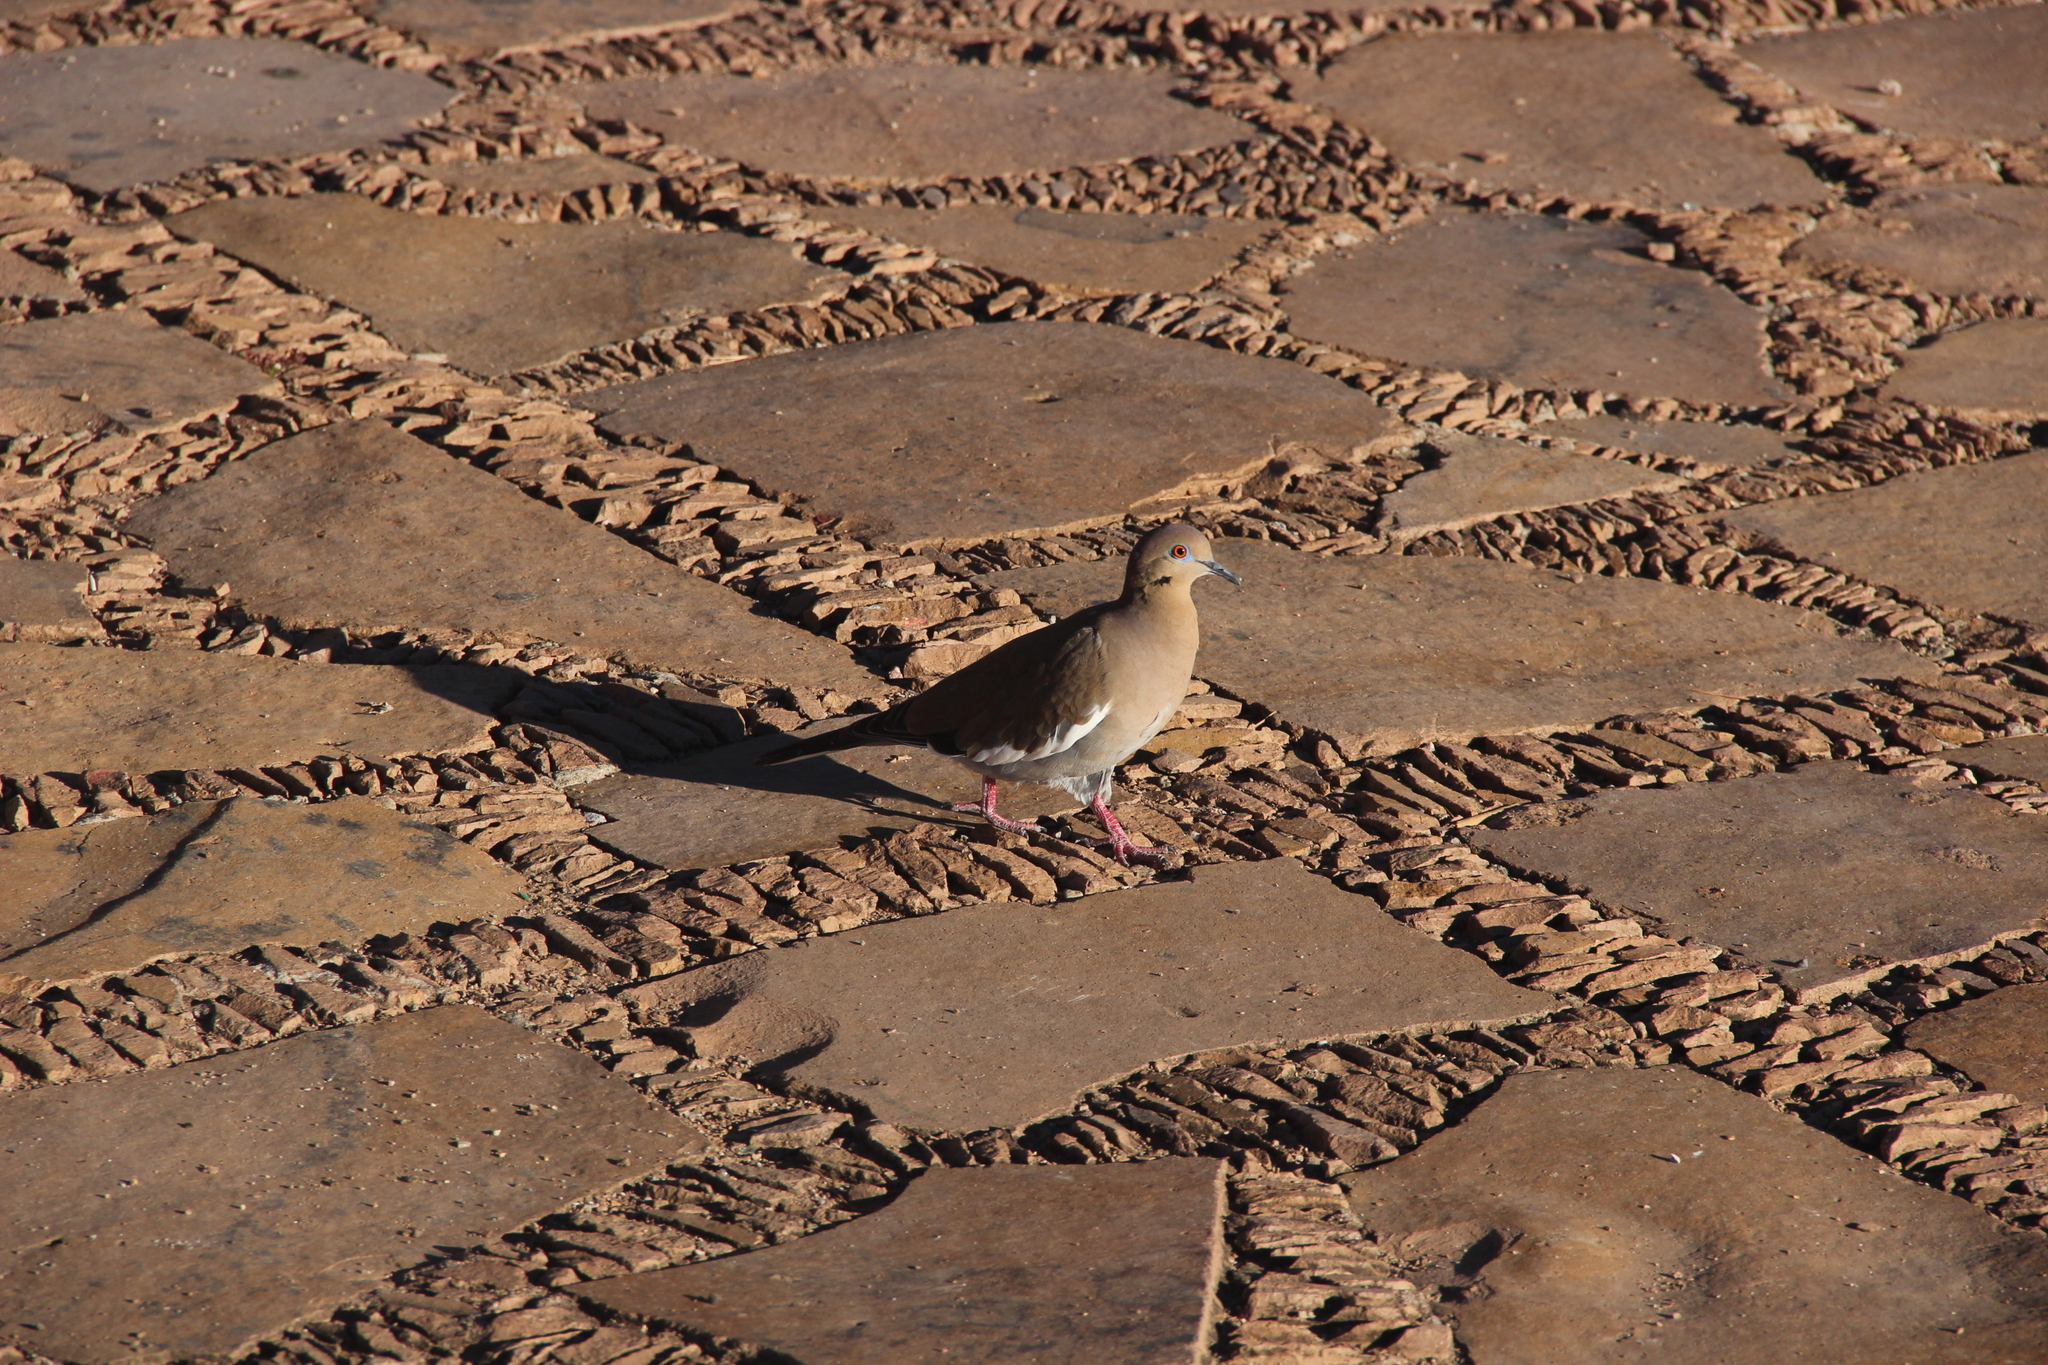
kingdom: Animalia
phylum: Chordata
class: Aves
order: Columbiformes
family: Columbidae
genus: Zenaida
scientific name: Zenaida asiatica
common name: White-winged dove
